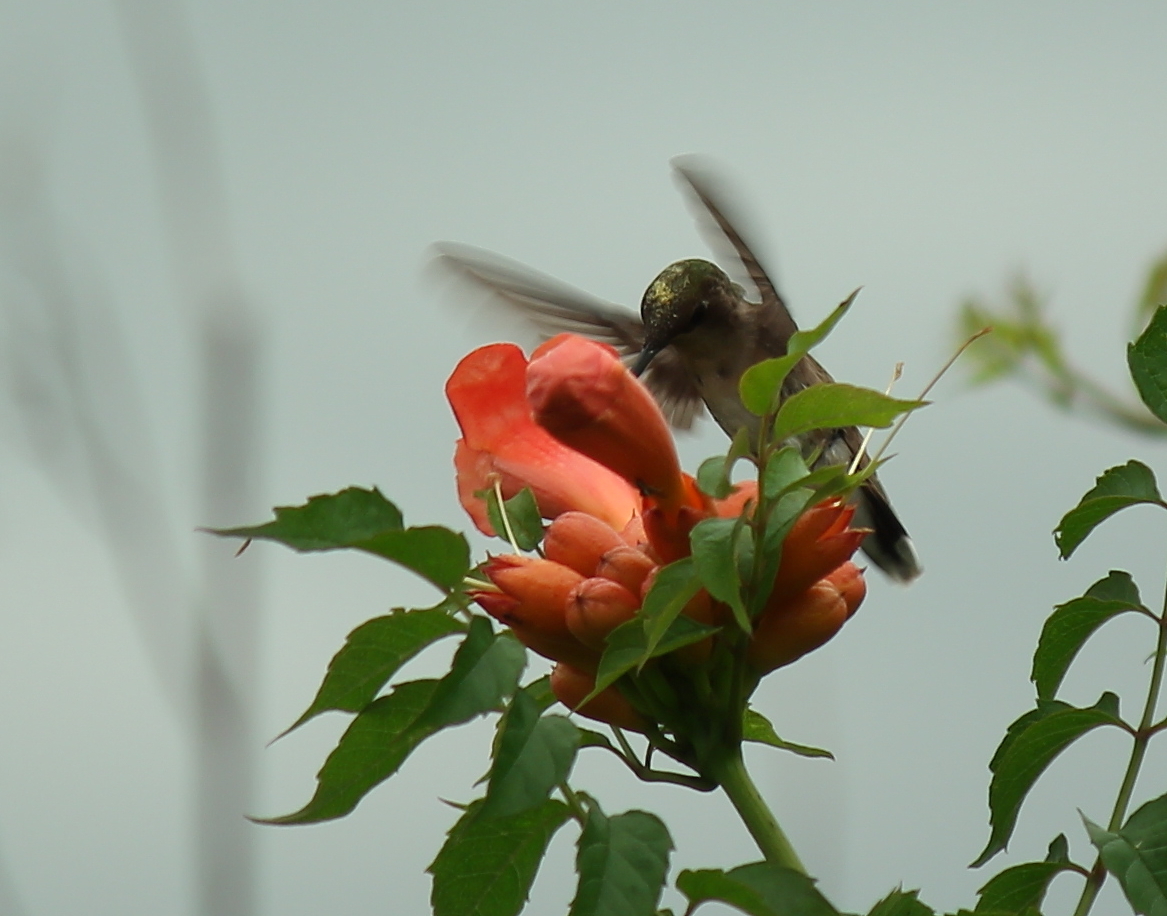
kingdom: Animalia
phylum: Chordata
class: Aves
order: Apodiformes
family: Trochilidae
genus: Archilochus
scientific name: Archilochus colubris
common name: Ruby-throated hummingbird
